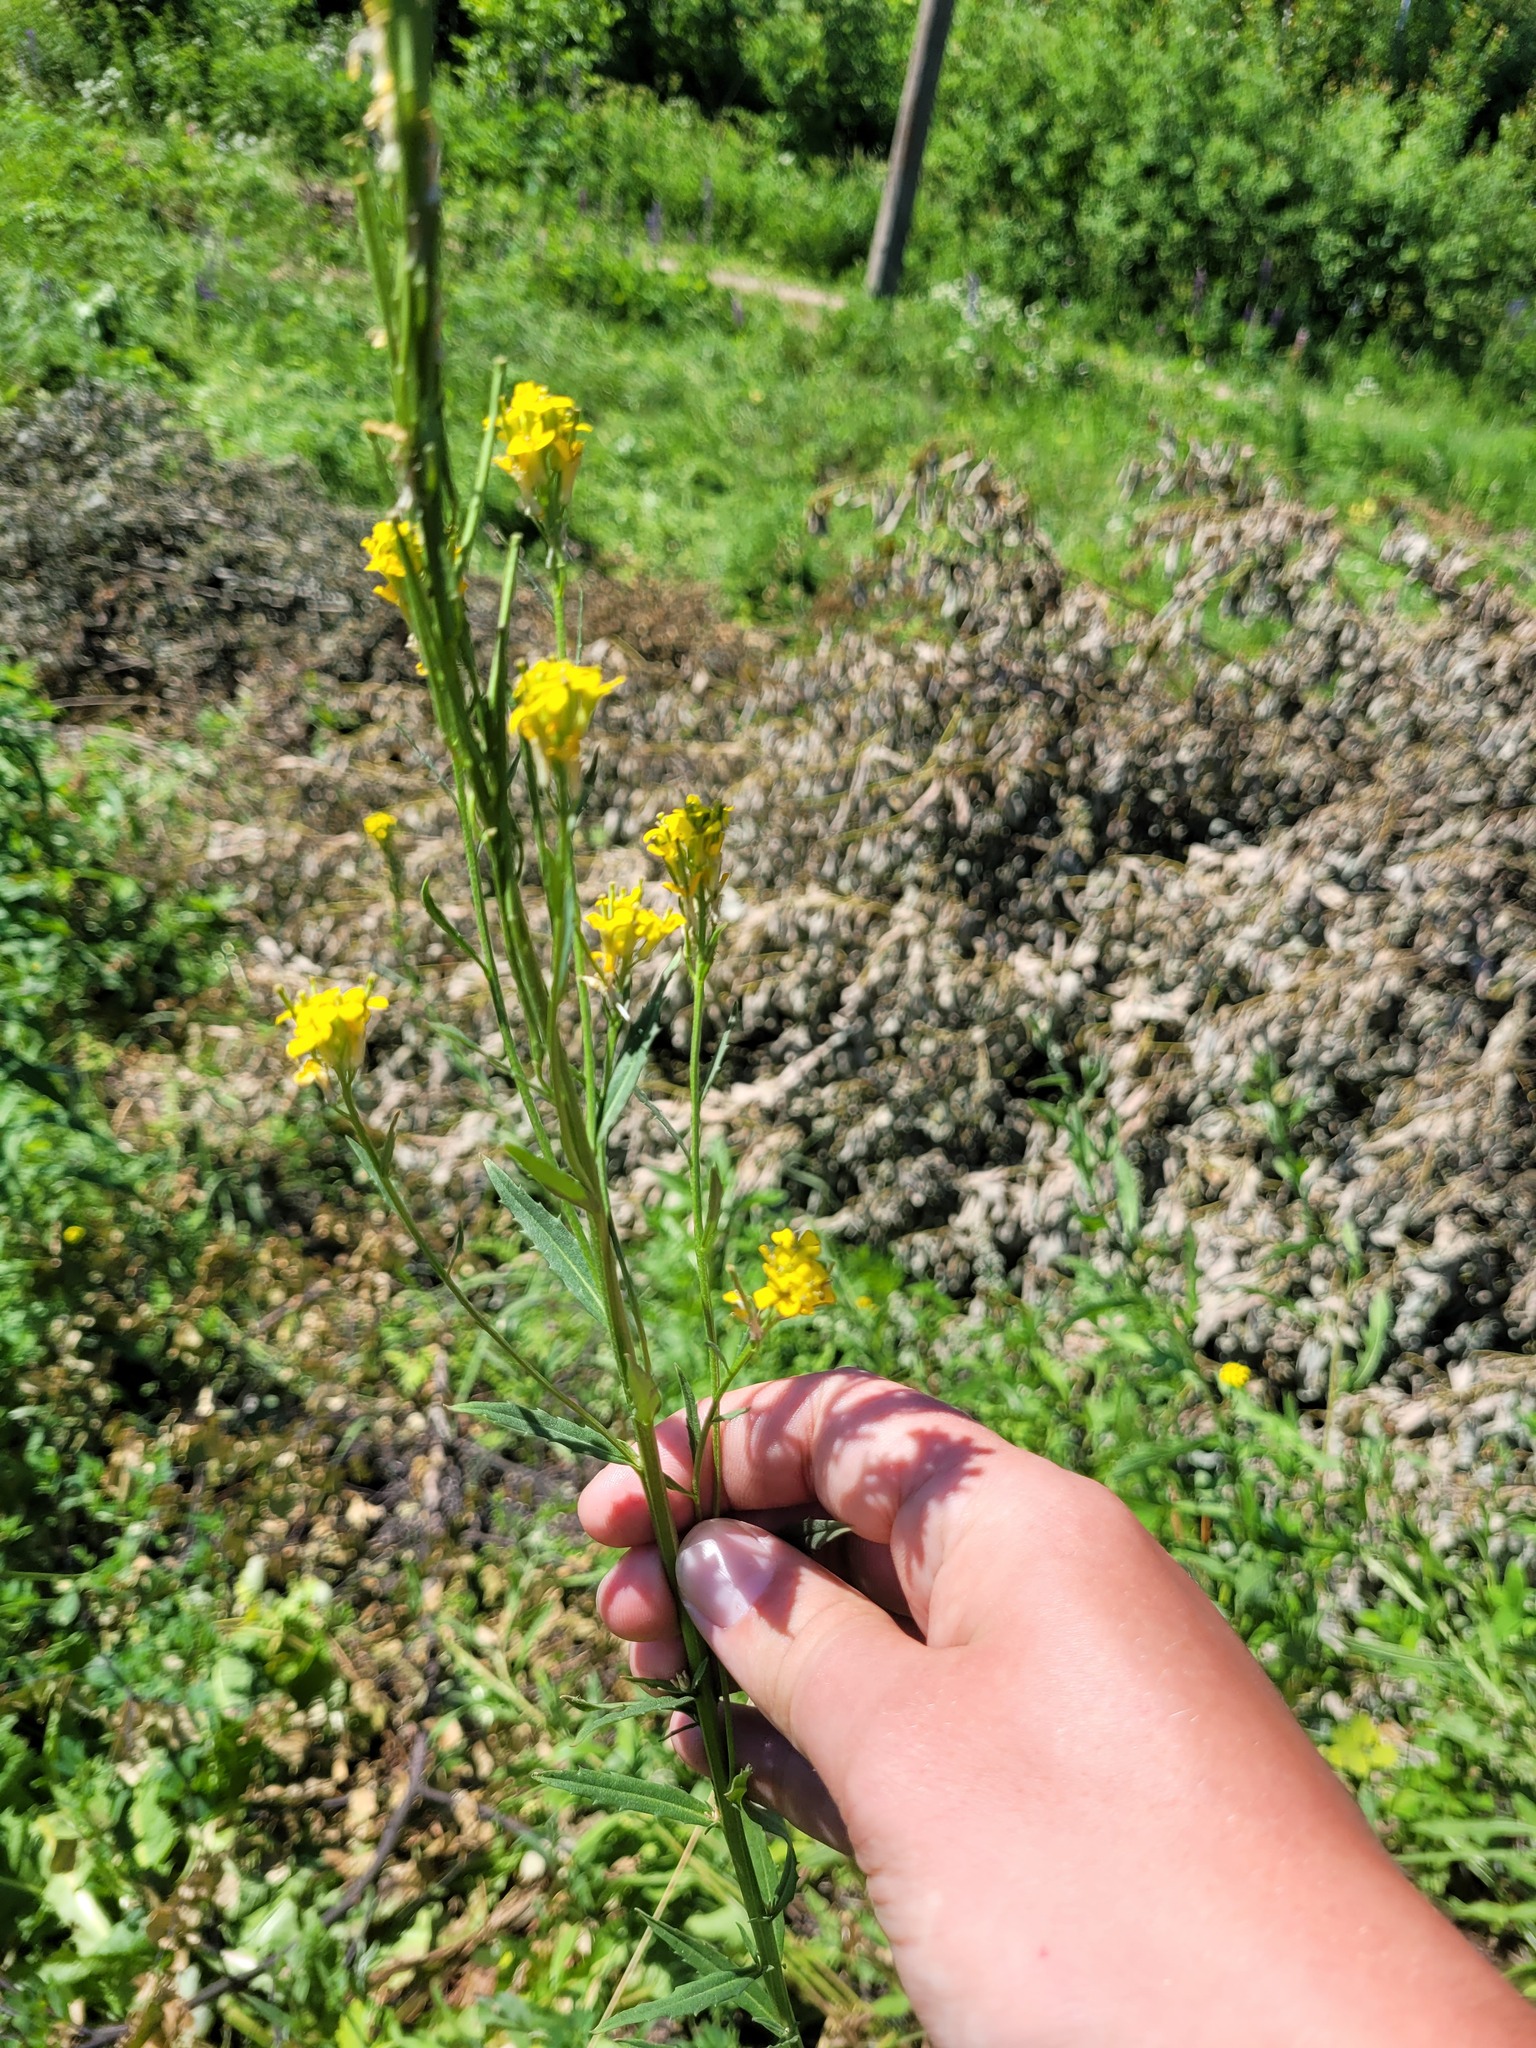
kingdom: Plantae
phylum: Tracheophyta
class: Magnoliopsida
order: Brassicales
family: Brassicaceae
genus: Erysimum
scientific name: Erysimum hieraciifolium
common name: European wallflower
